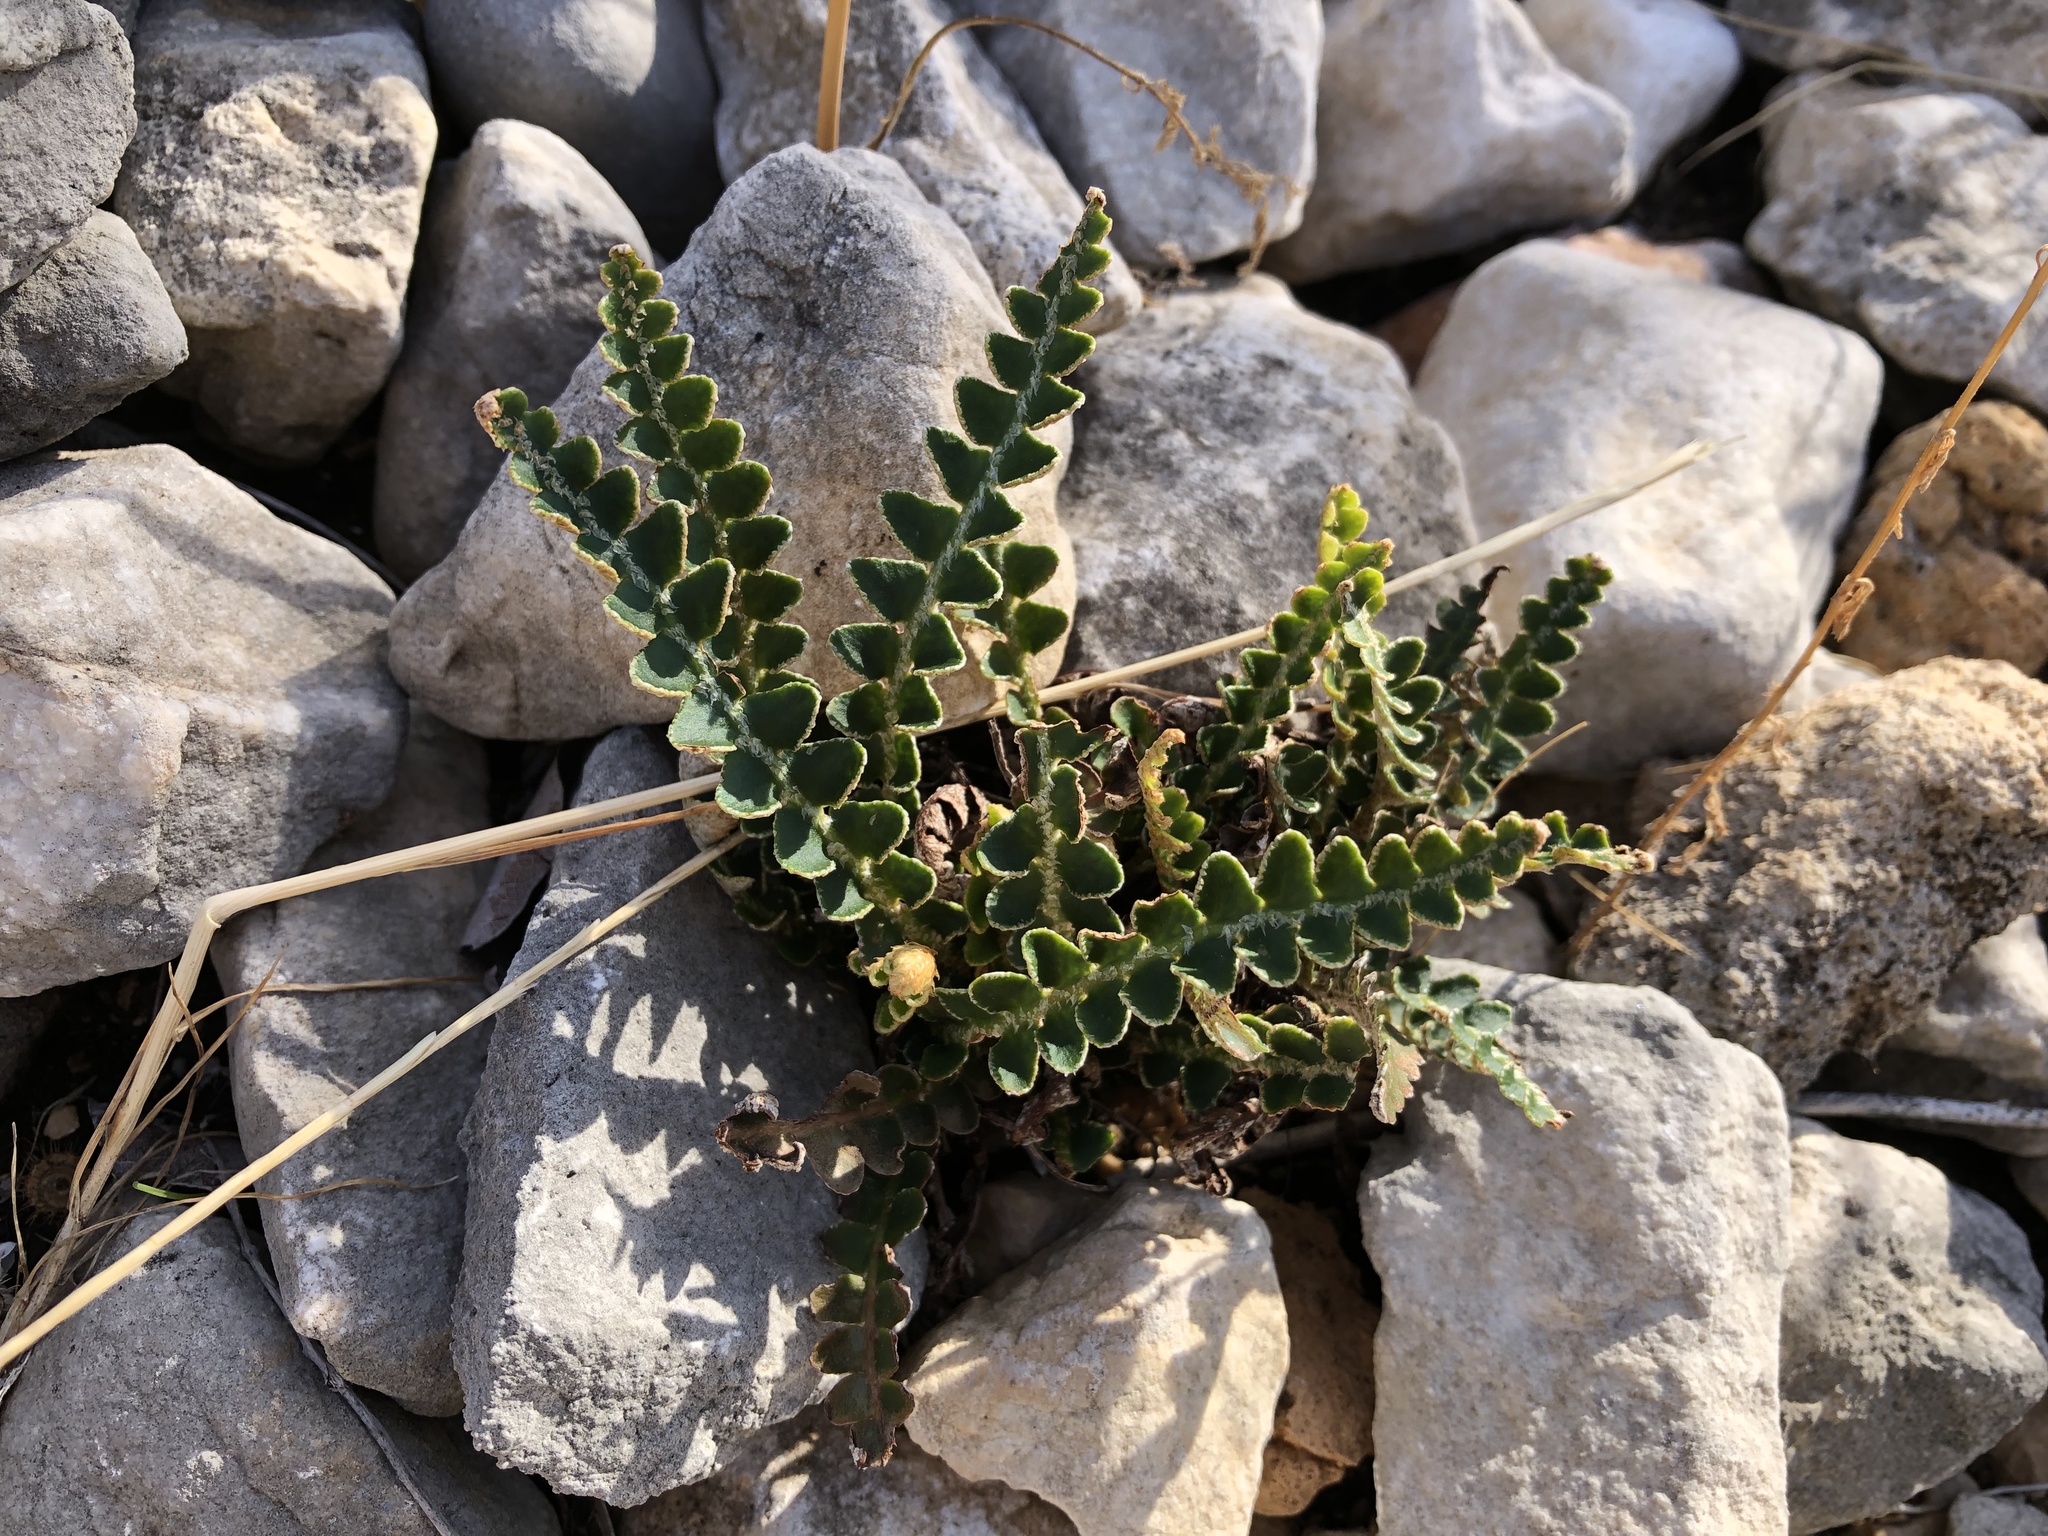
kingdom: Plantae
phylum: Tracheophyta
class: Polypodiopsida
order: Polypodiales
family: Aspleniaceae
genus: Asplenium
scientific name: Asplenium ceterach
